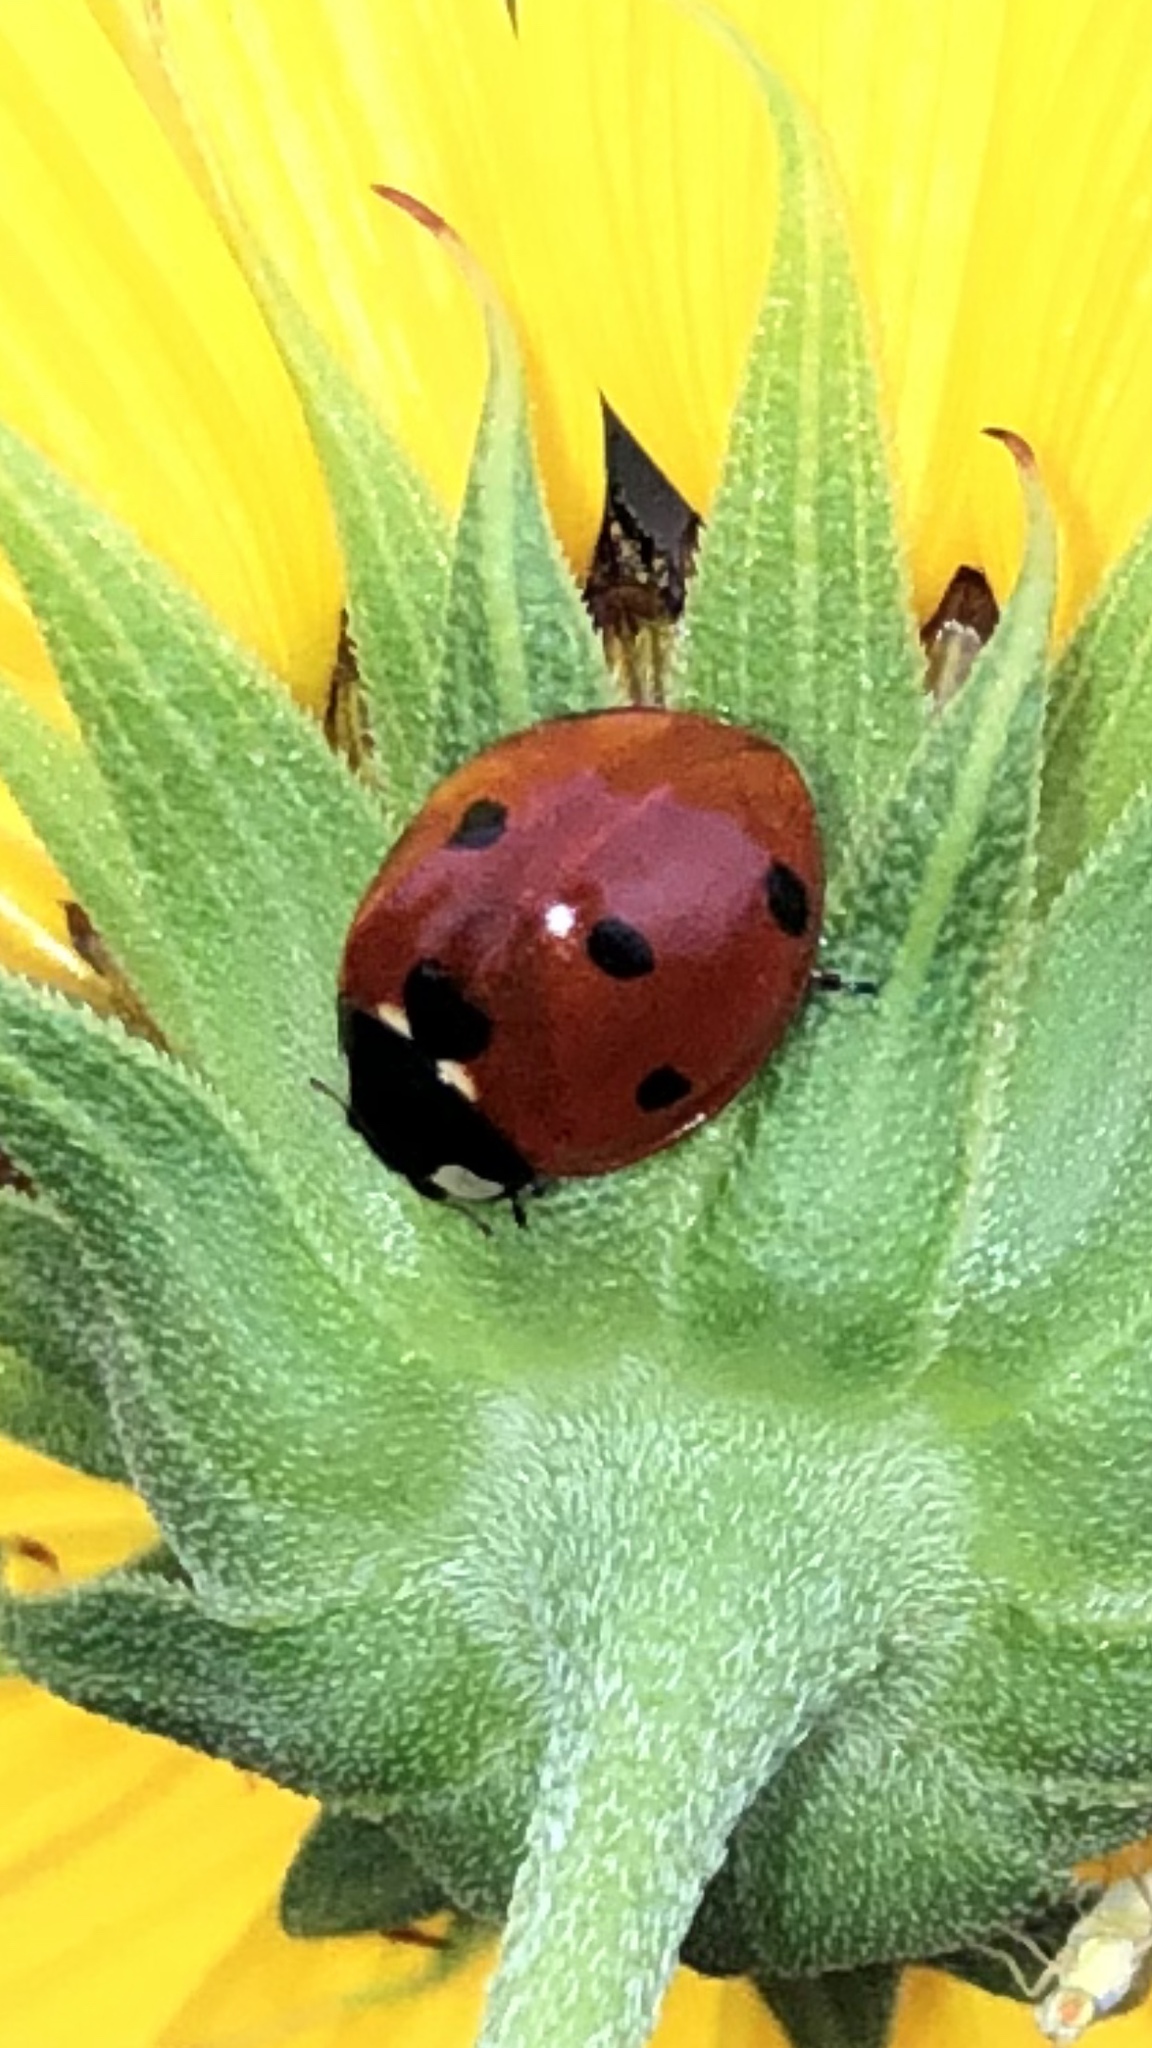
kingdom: Animalia
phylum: Arthropoda
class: Insecta
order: Coleoptera
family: Coccinellidae
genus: Coccinella
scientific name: Coccinella septempunctata
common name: Sevenspotted lady beetle
